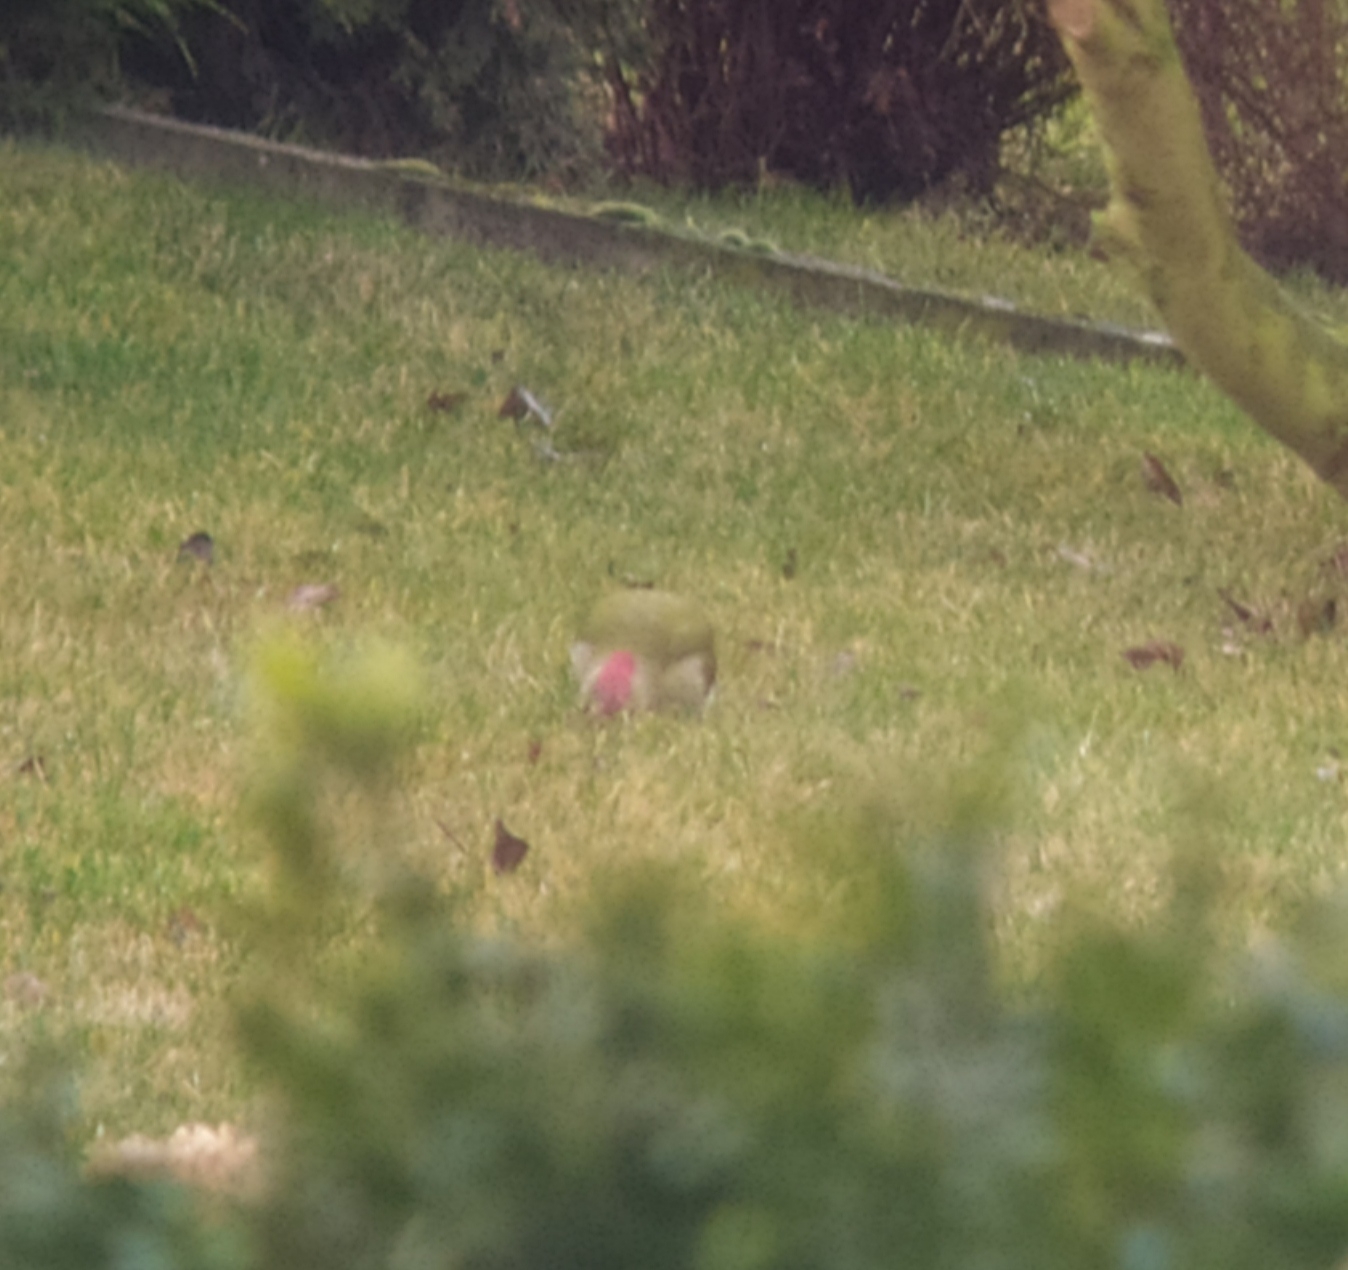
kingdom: Animalia
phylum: Chordata
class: Aves
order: Piciformes
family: Picidae
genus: Picus
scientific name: Picus viridis
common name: European green woodpecker
